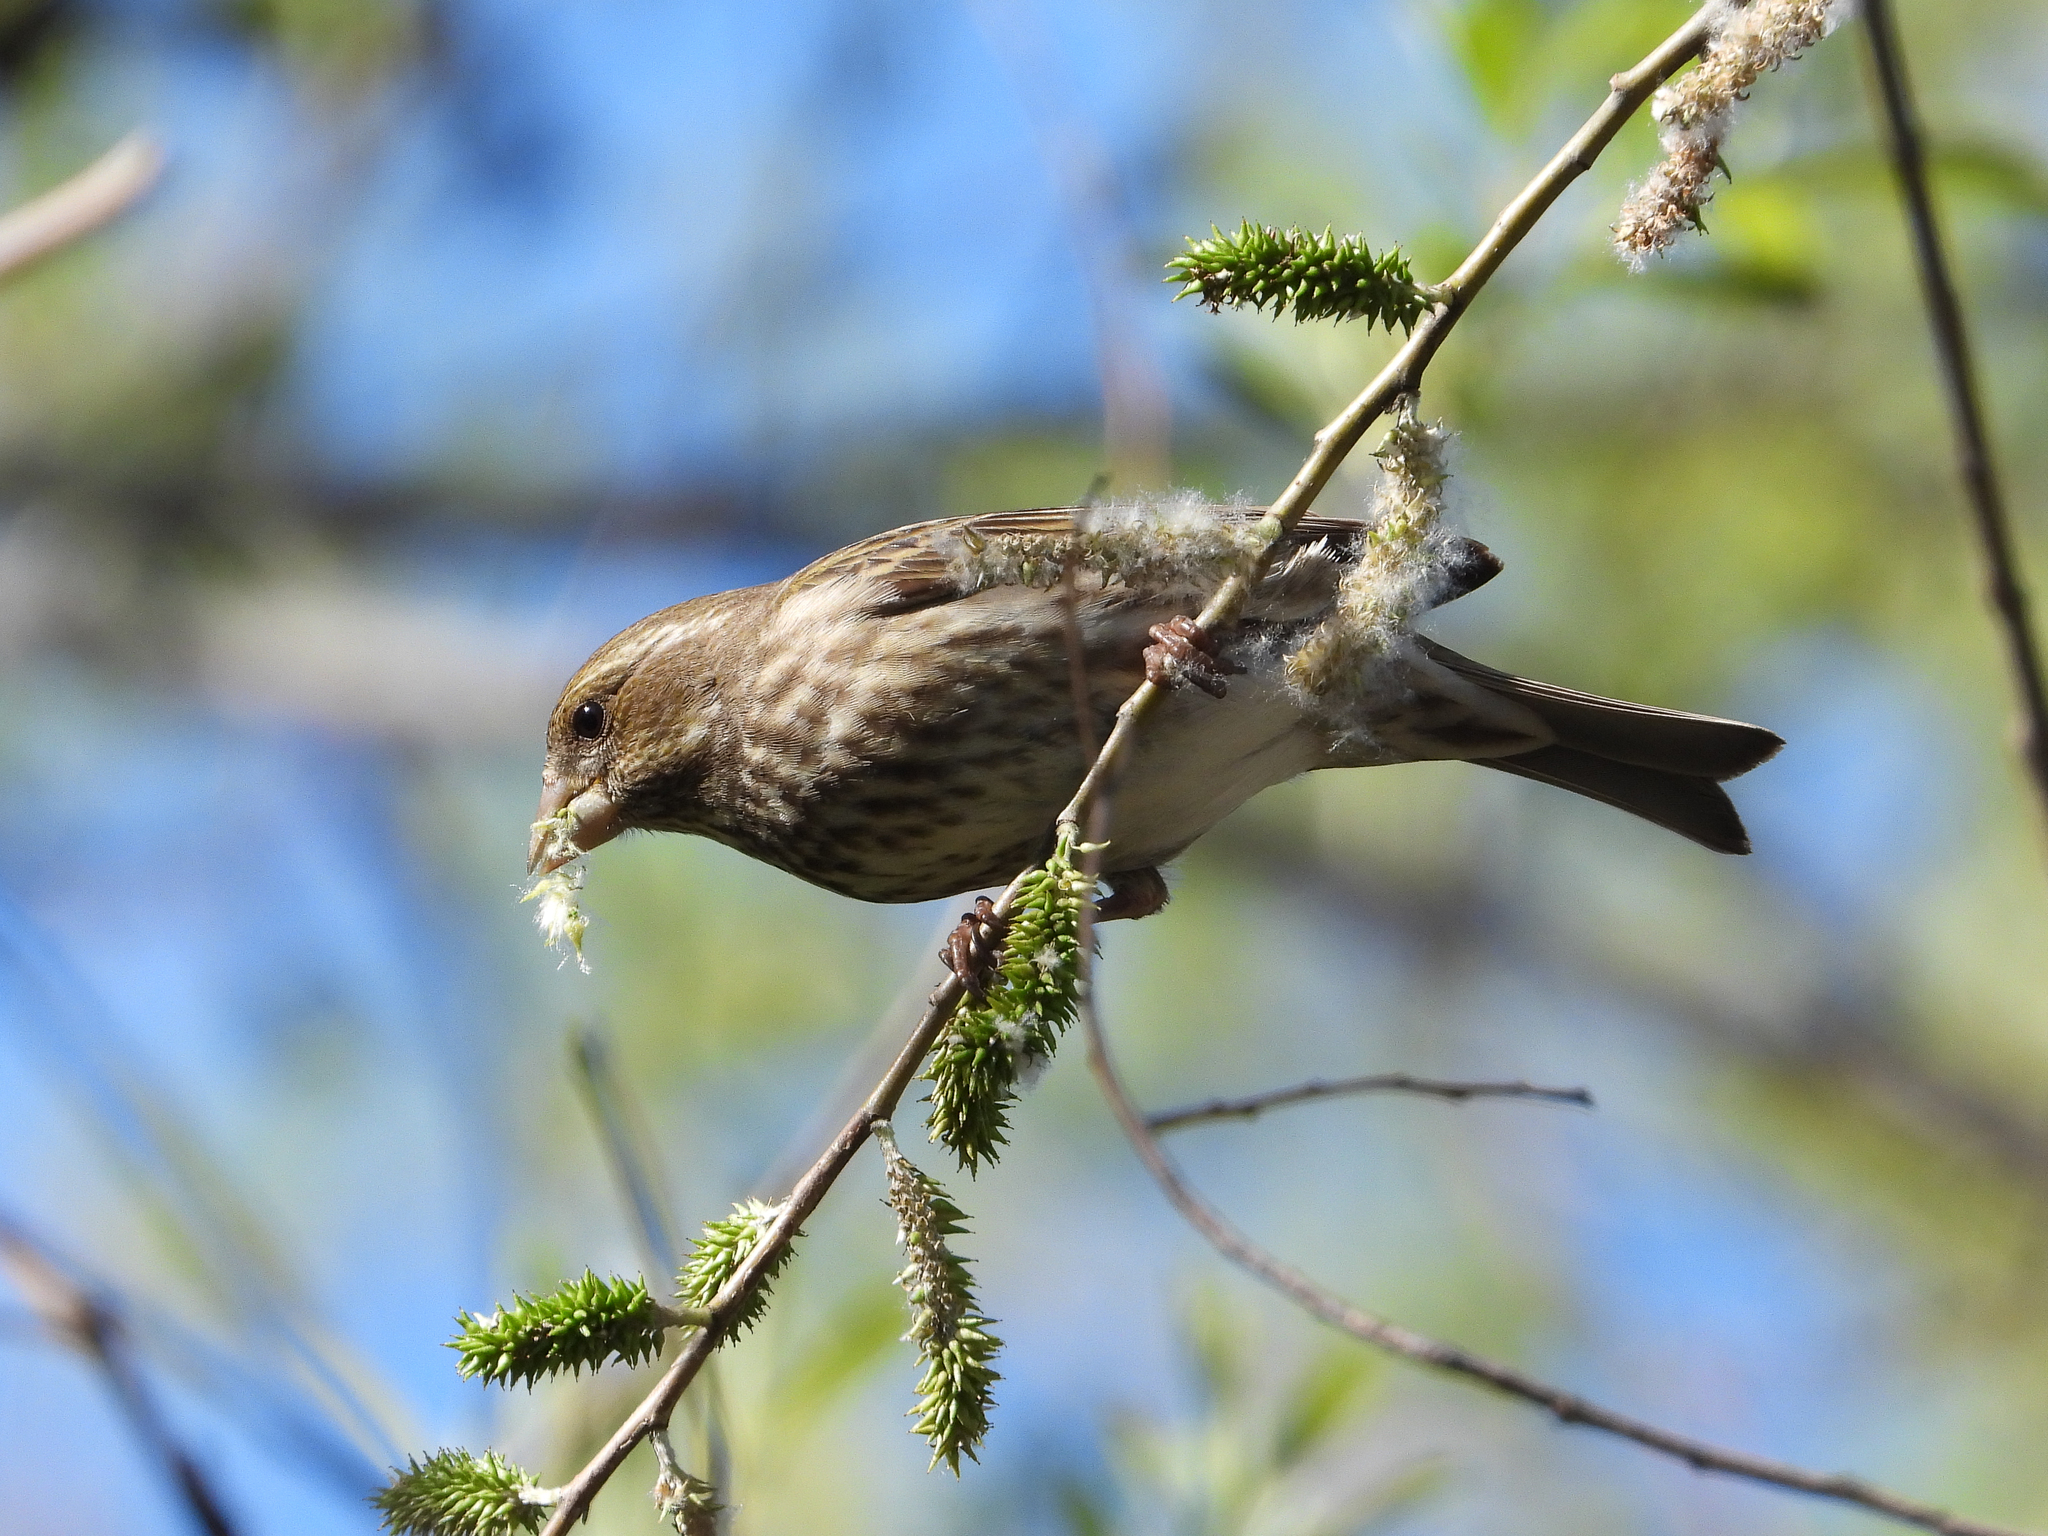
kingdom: Animalia
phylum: Chordata
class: Aves
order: Passeriformes
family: Fringillidae
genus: Haemorhous
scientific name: Haemorhous purpureus
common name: Purple finch
